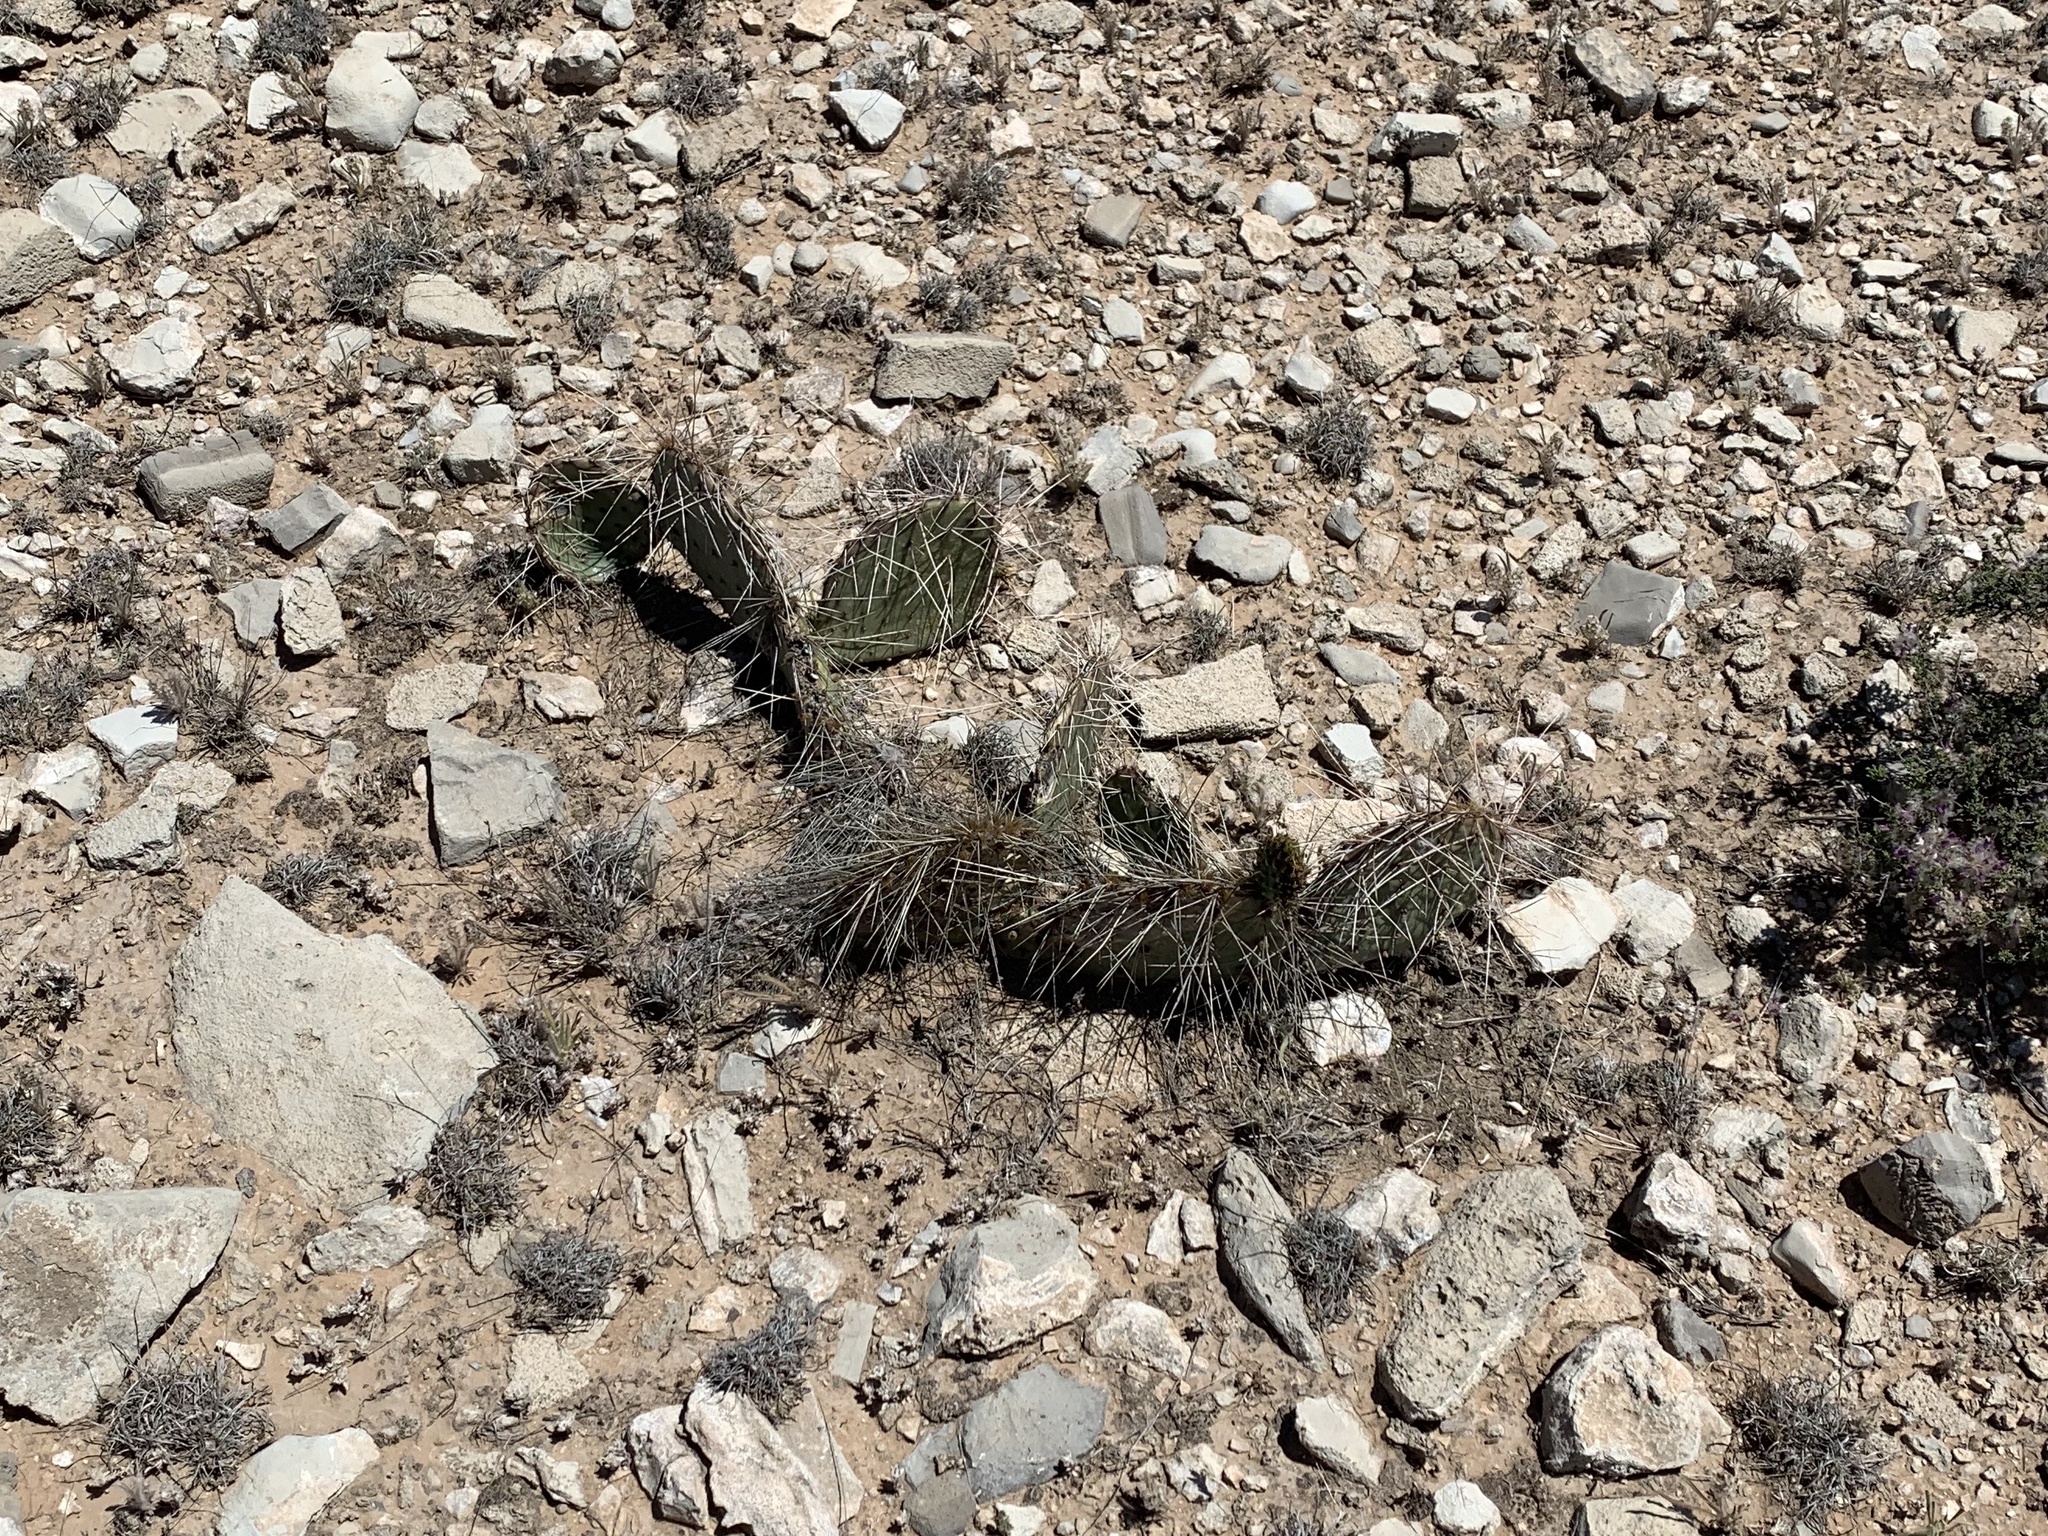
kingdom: Plantae
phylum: Tracheophyta
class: Magnoliopsida
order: Caryophyllales
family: Cactaceae
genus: Opuntia
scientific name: Opuntia macrorhiza
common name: Grassland pricklypear
